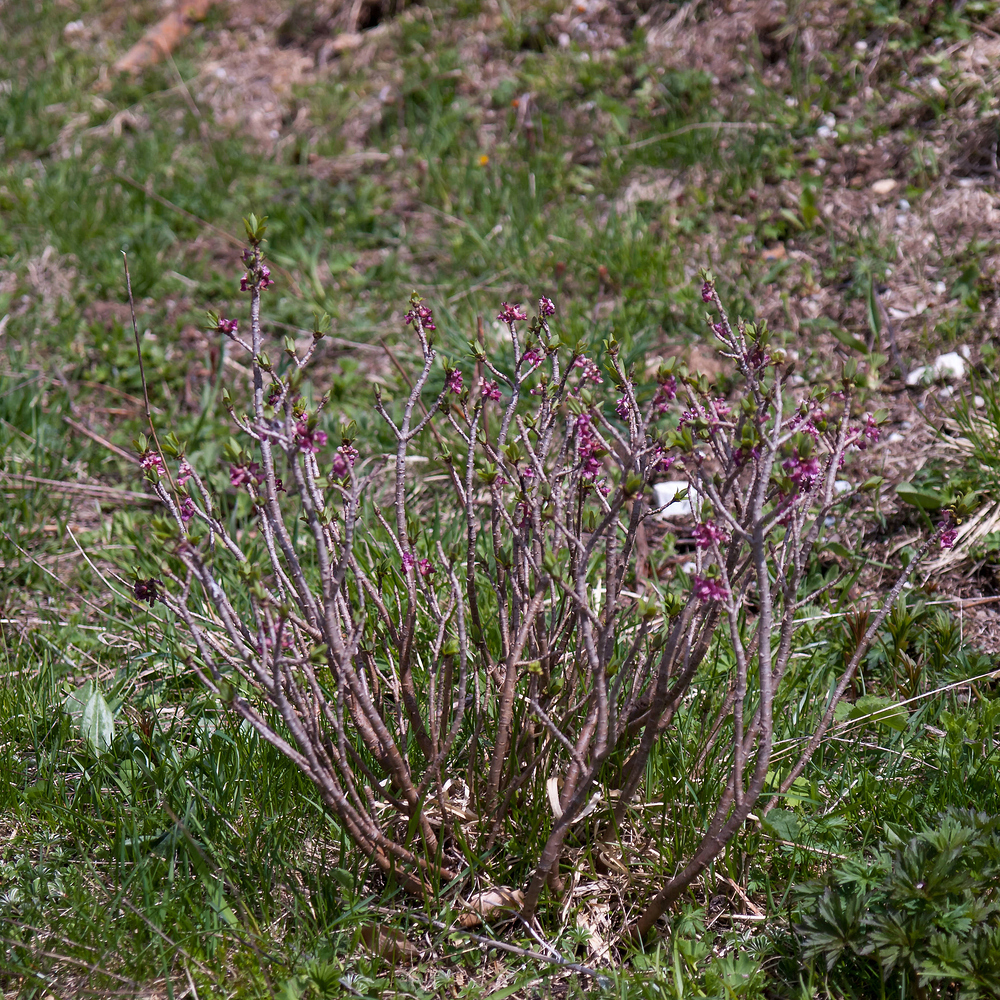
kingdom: Plantae
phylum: Tracheophyta
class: Magnoliopsida
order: Malvales
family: Thymelaeaceae
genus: Daphne
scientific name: Daphne mezereum
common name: Mezereon
